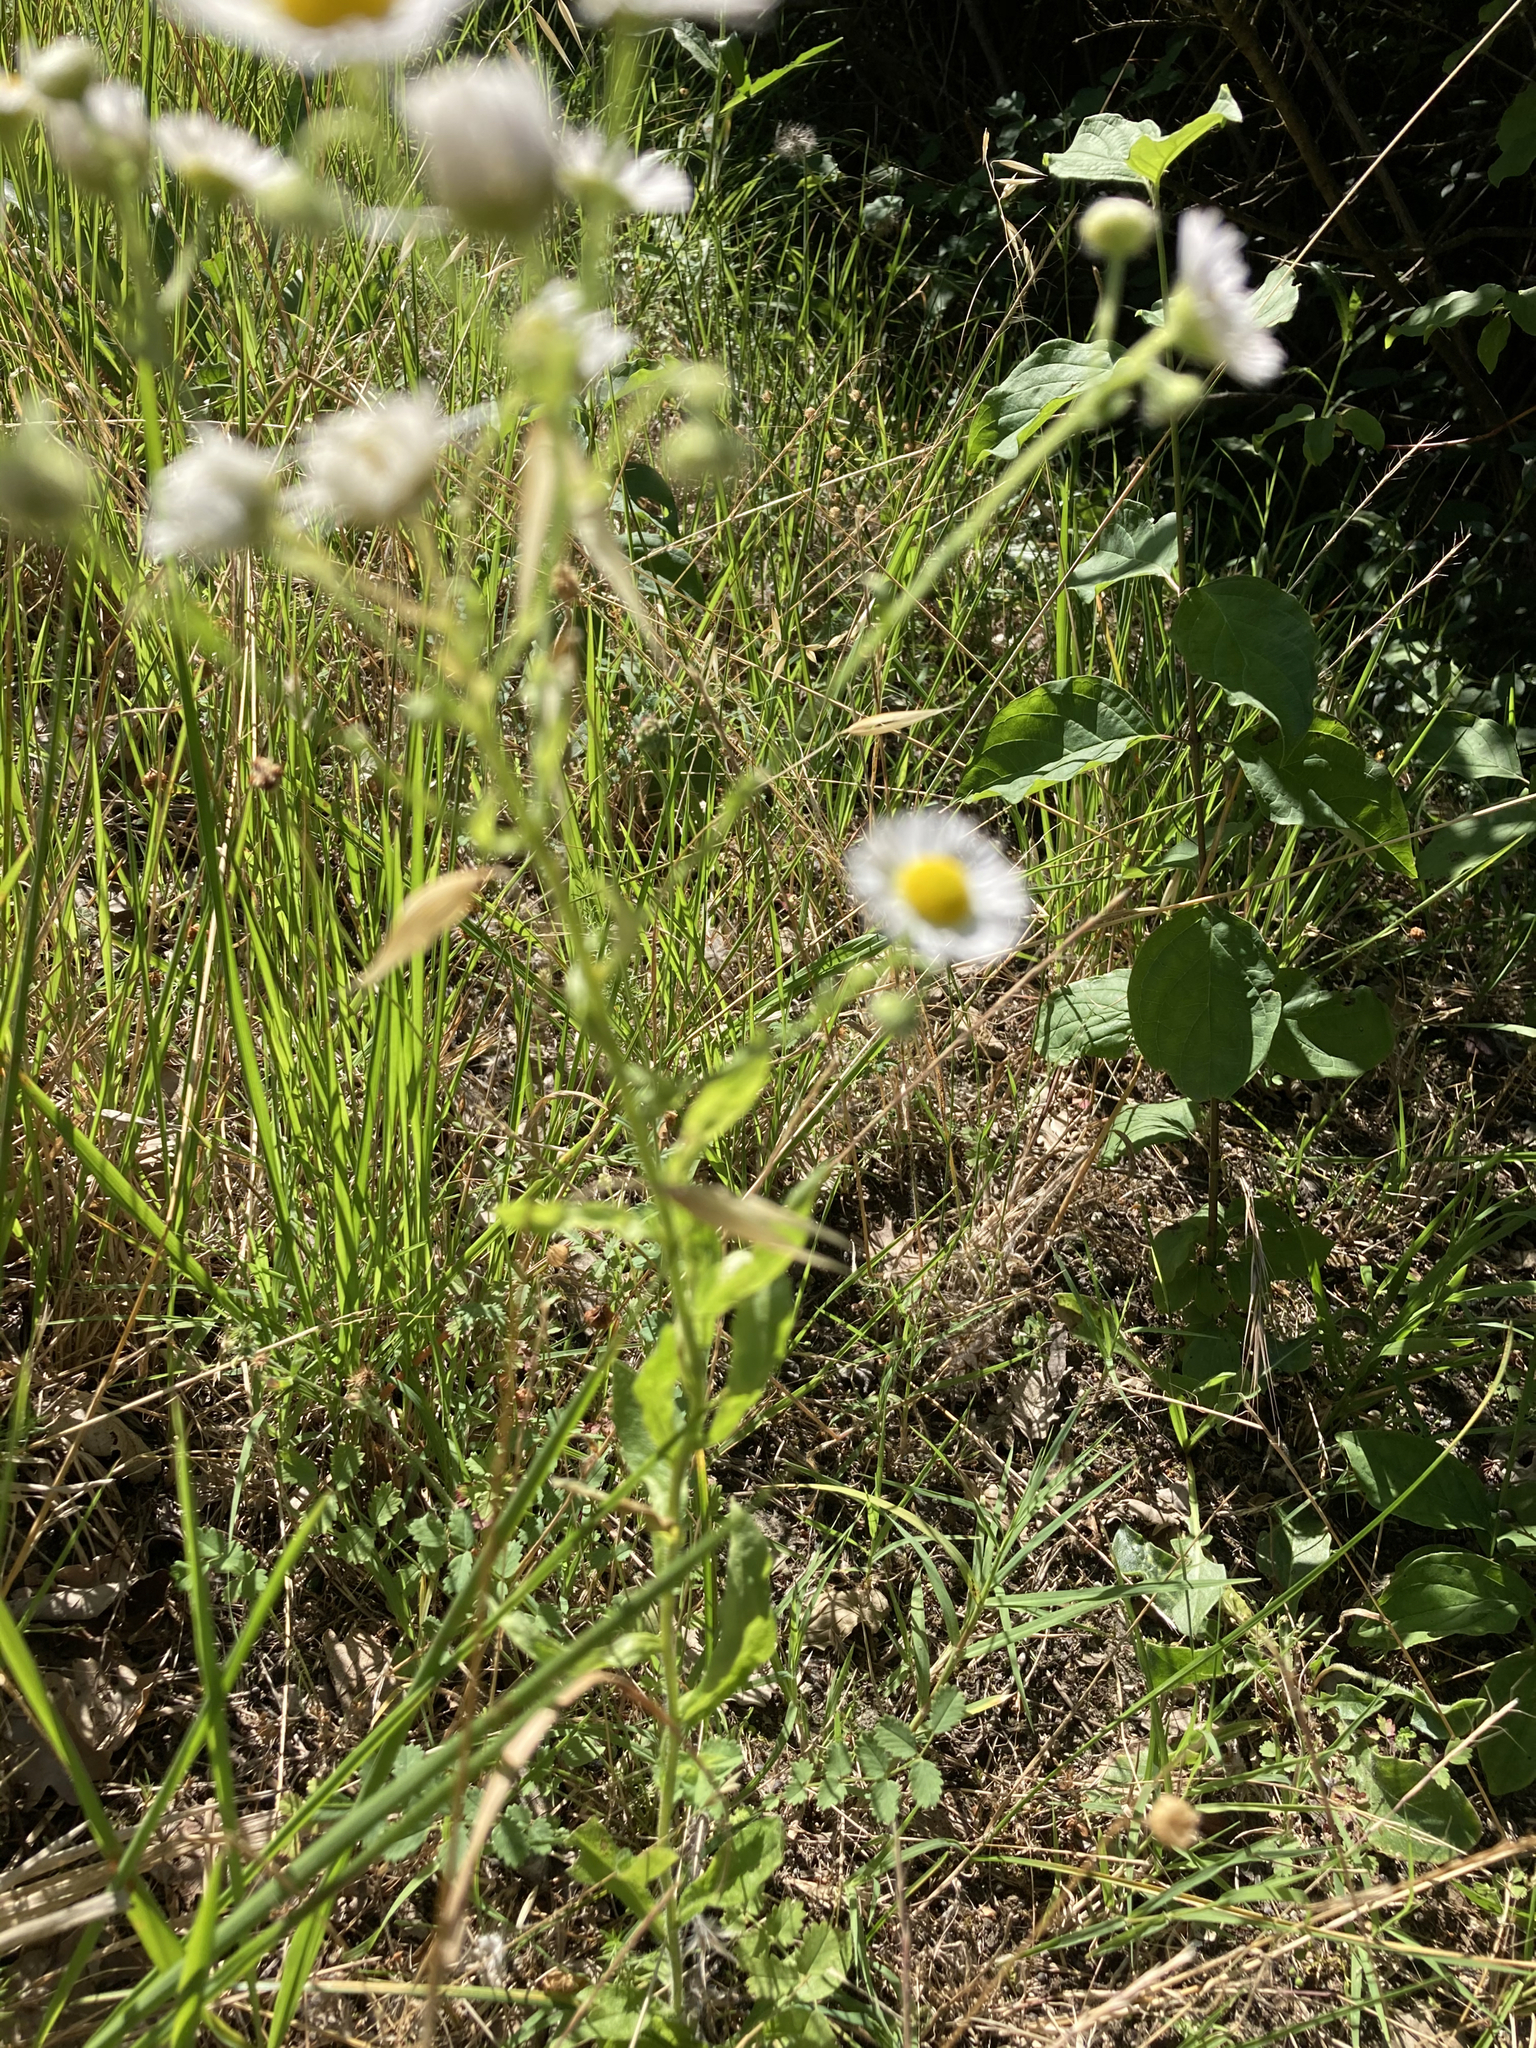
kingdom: Plantae
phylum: Tracheophyta
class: Magnoliopsida
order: Asterales
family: Asteraceae
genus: Erigeron
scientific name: Erigeron annuus
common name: Tall fleabane
